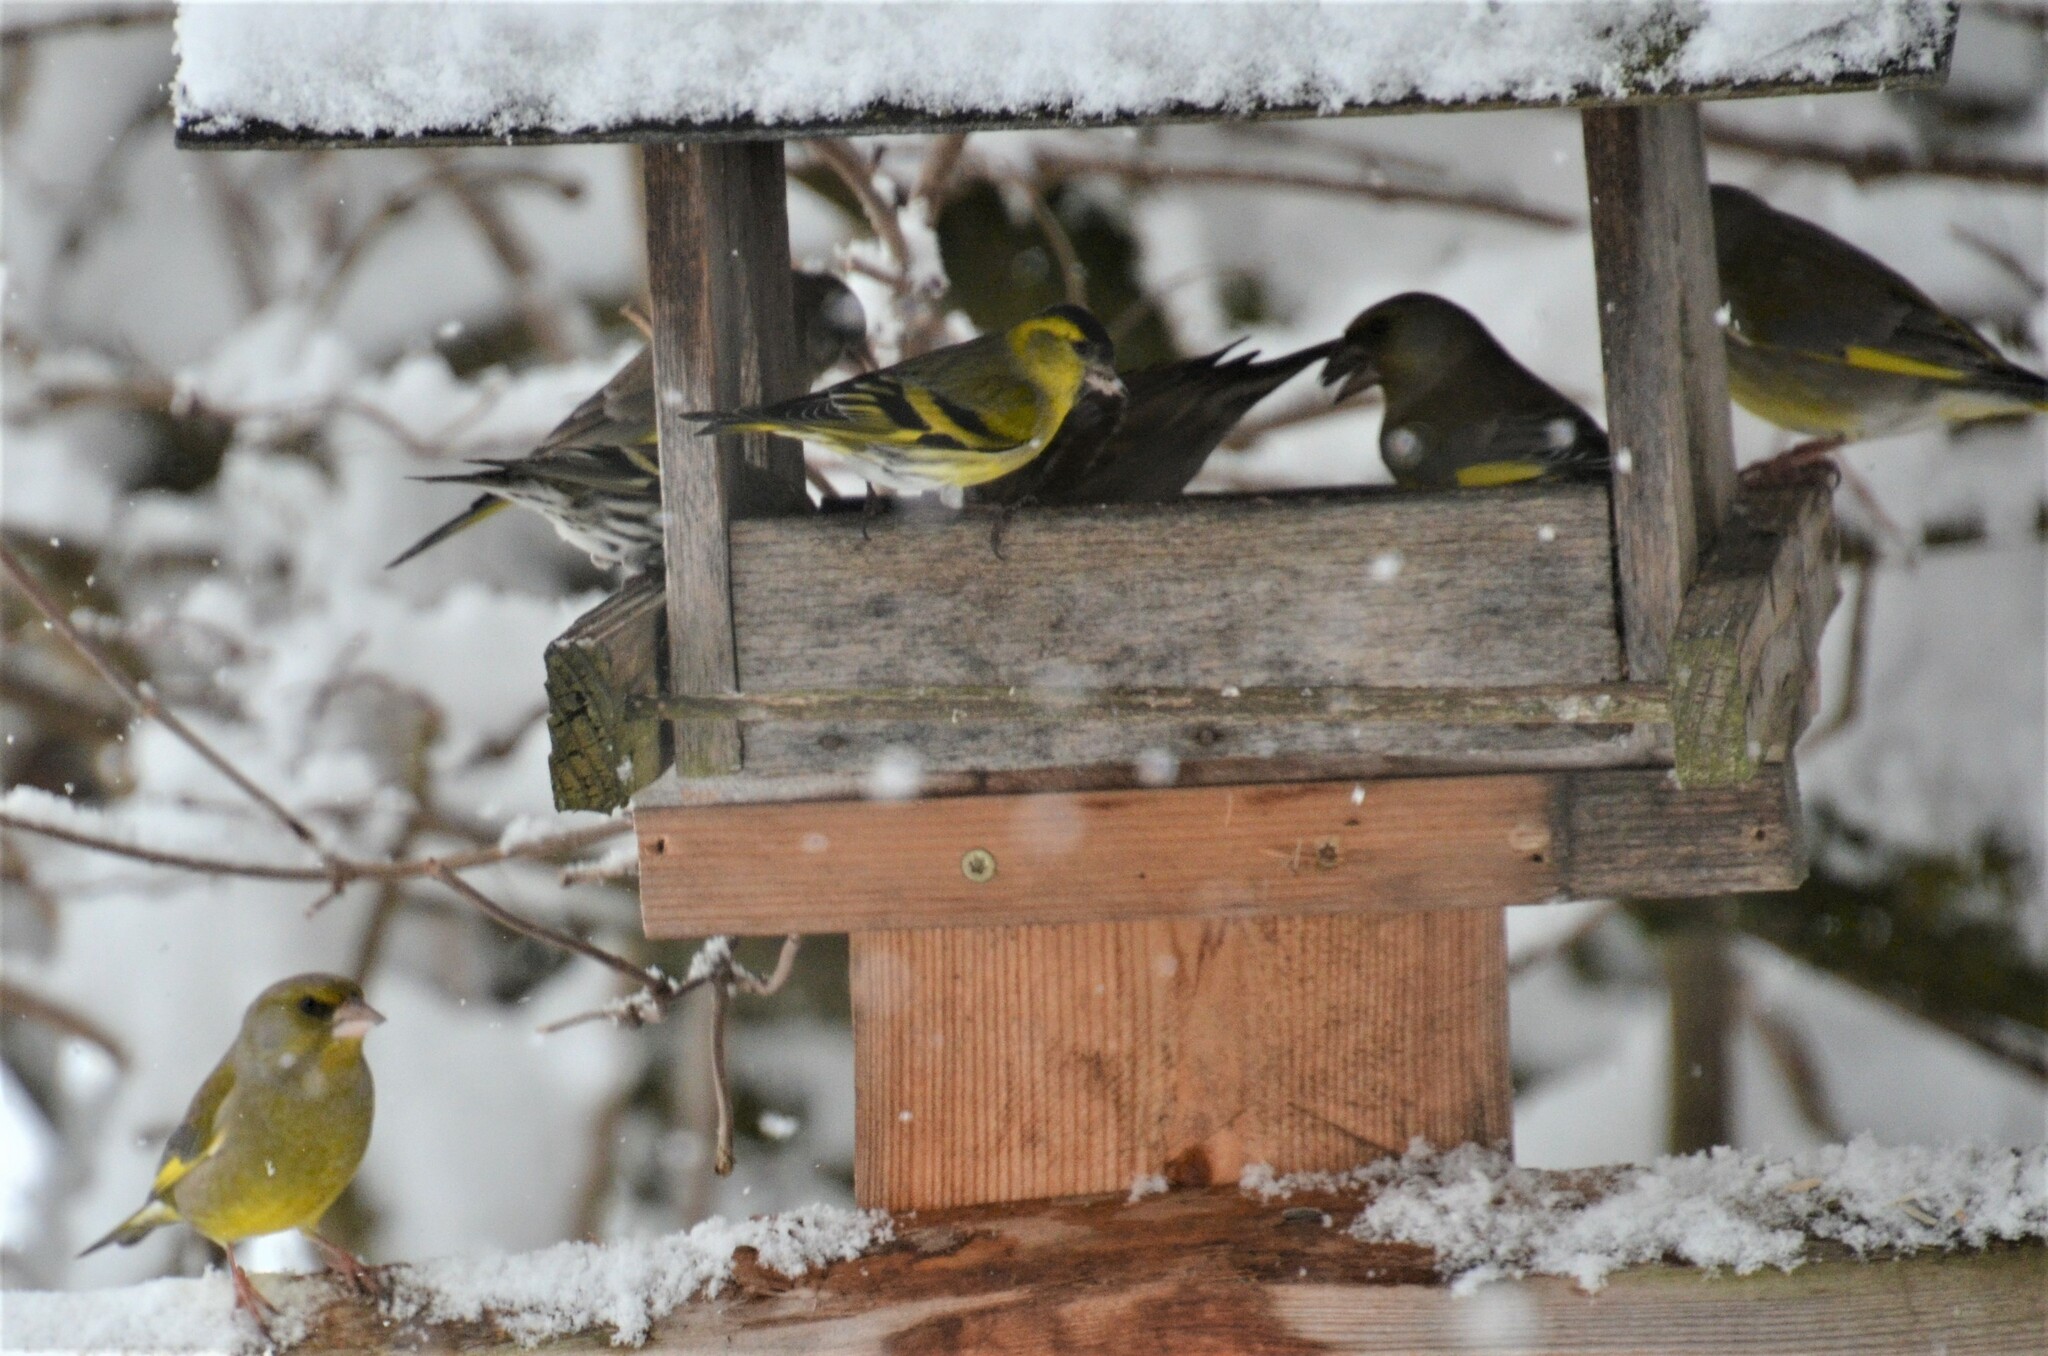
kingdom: Plantae
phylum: Tracheophyta
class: Liliopsida
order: Poales
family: Poaceae
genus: Chloris
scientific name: Chloris chloris
